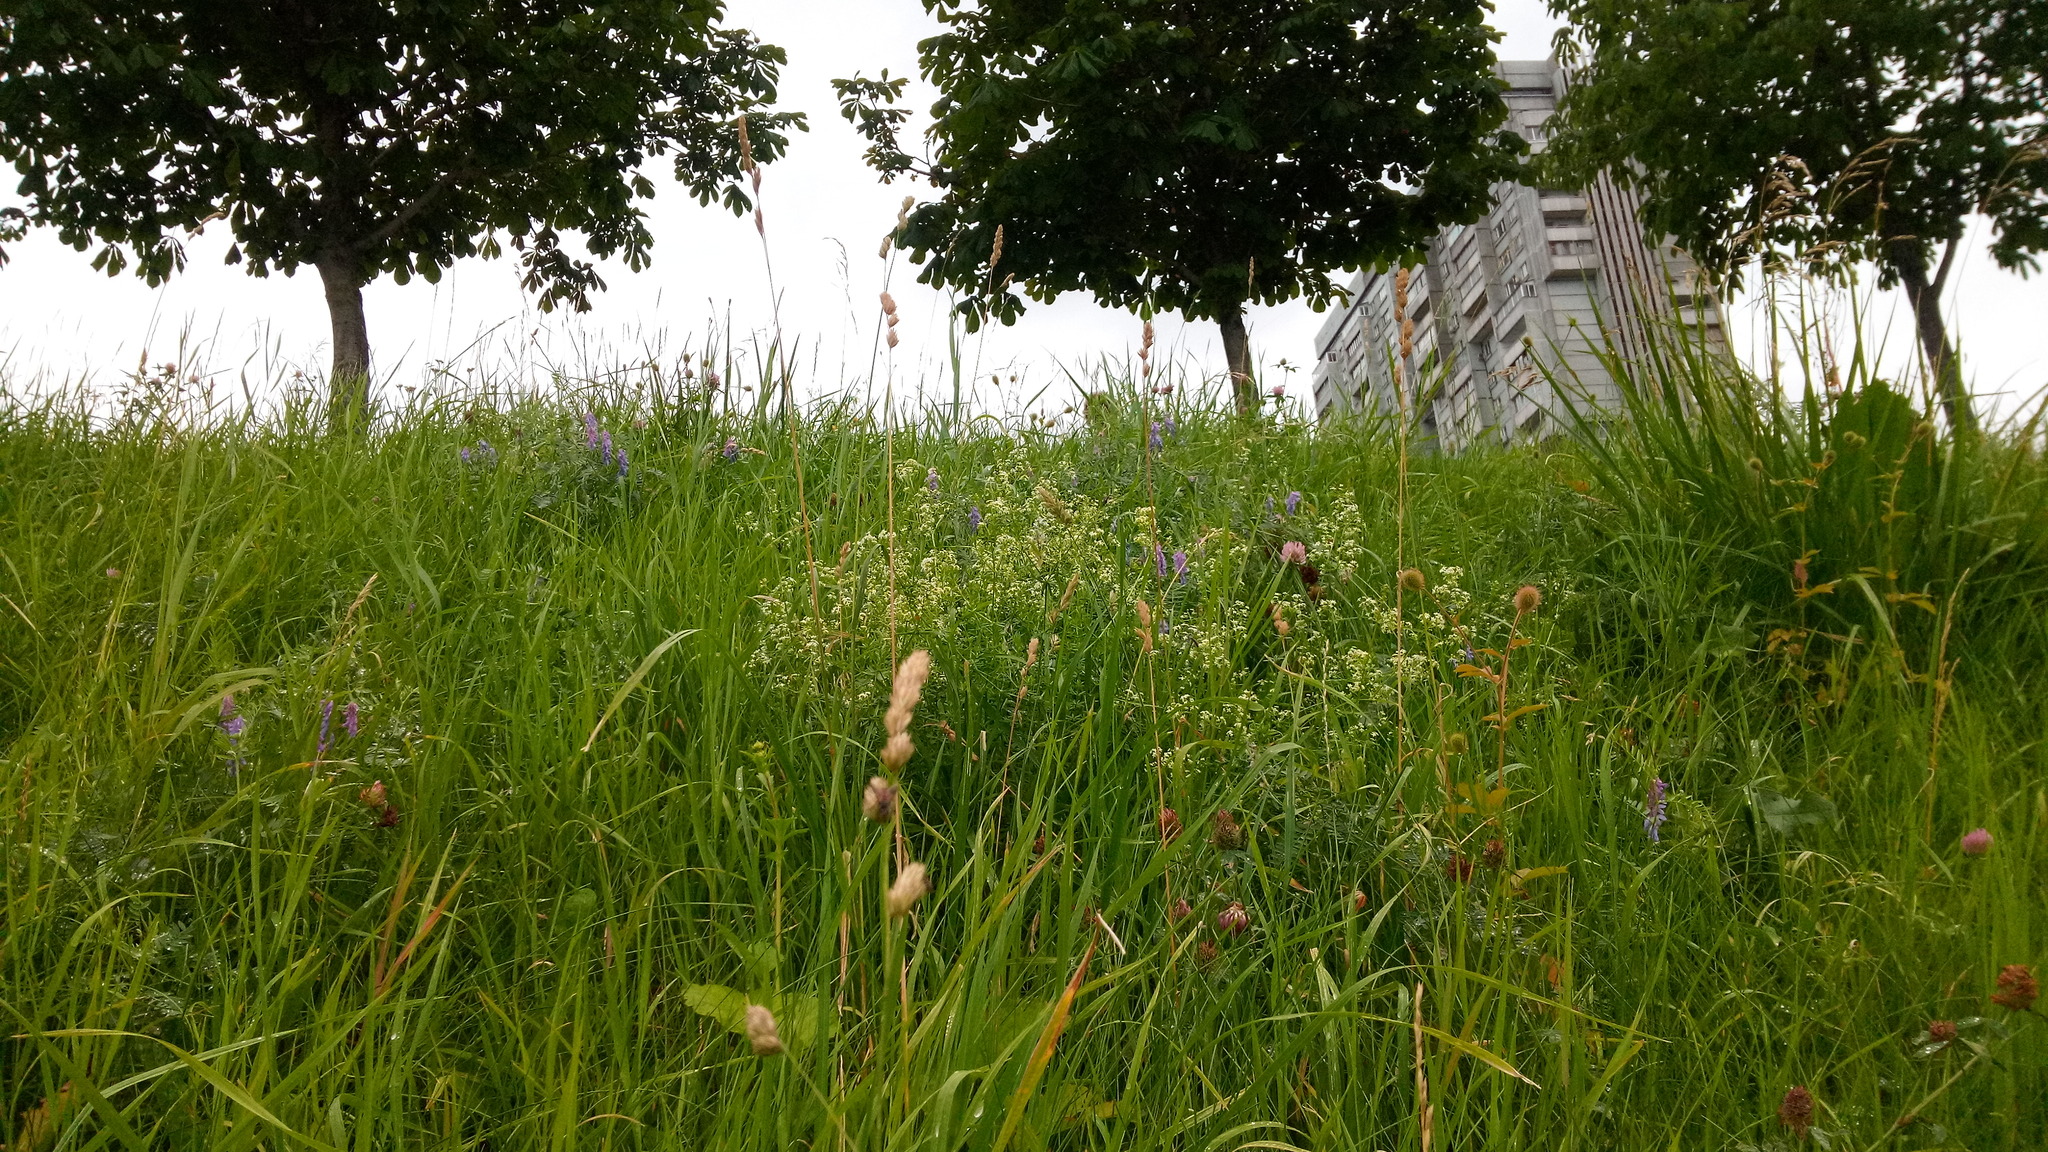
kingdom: Plantae
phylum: Tracheophyta
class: Magnoliopsida
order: Gentianales
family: Rubiaceae
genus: Galium
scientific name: Galium mollugo
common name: Hedge bedstraw
